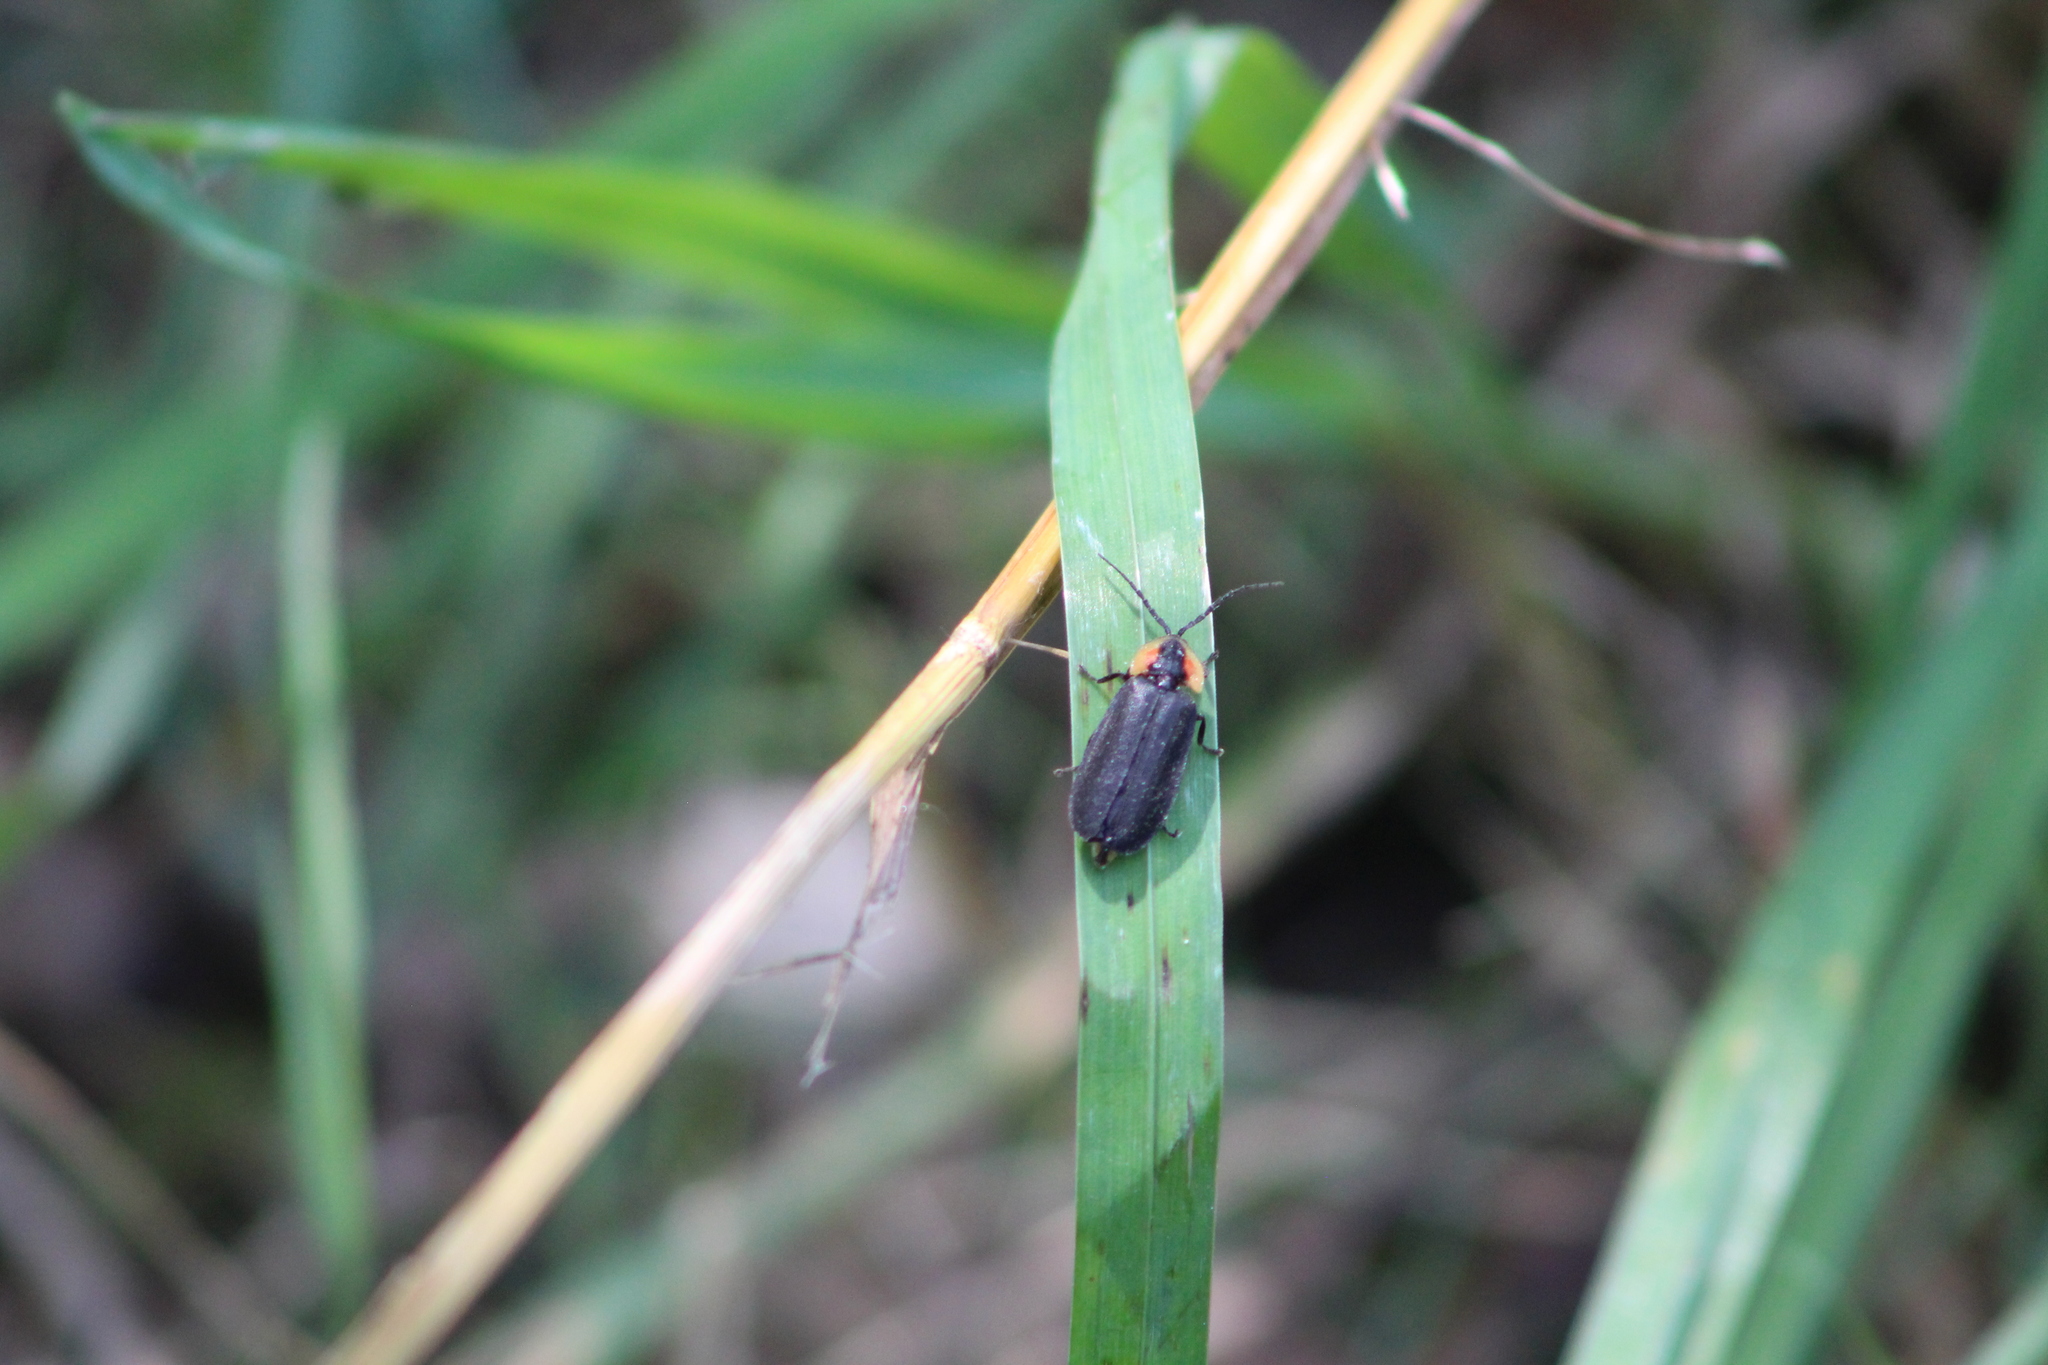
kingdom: Animalia
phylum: Arthropoda
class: Insecta
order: Coleoptera
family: Lampyridae
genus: Lucidota
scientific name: Lucidota atra
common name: Black firefly
